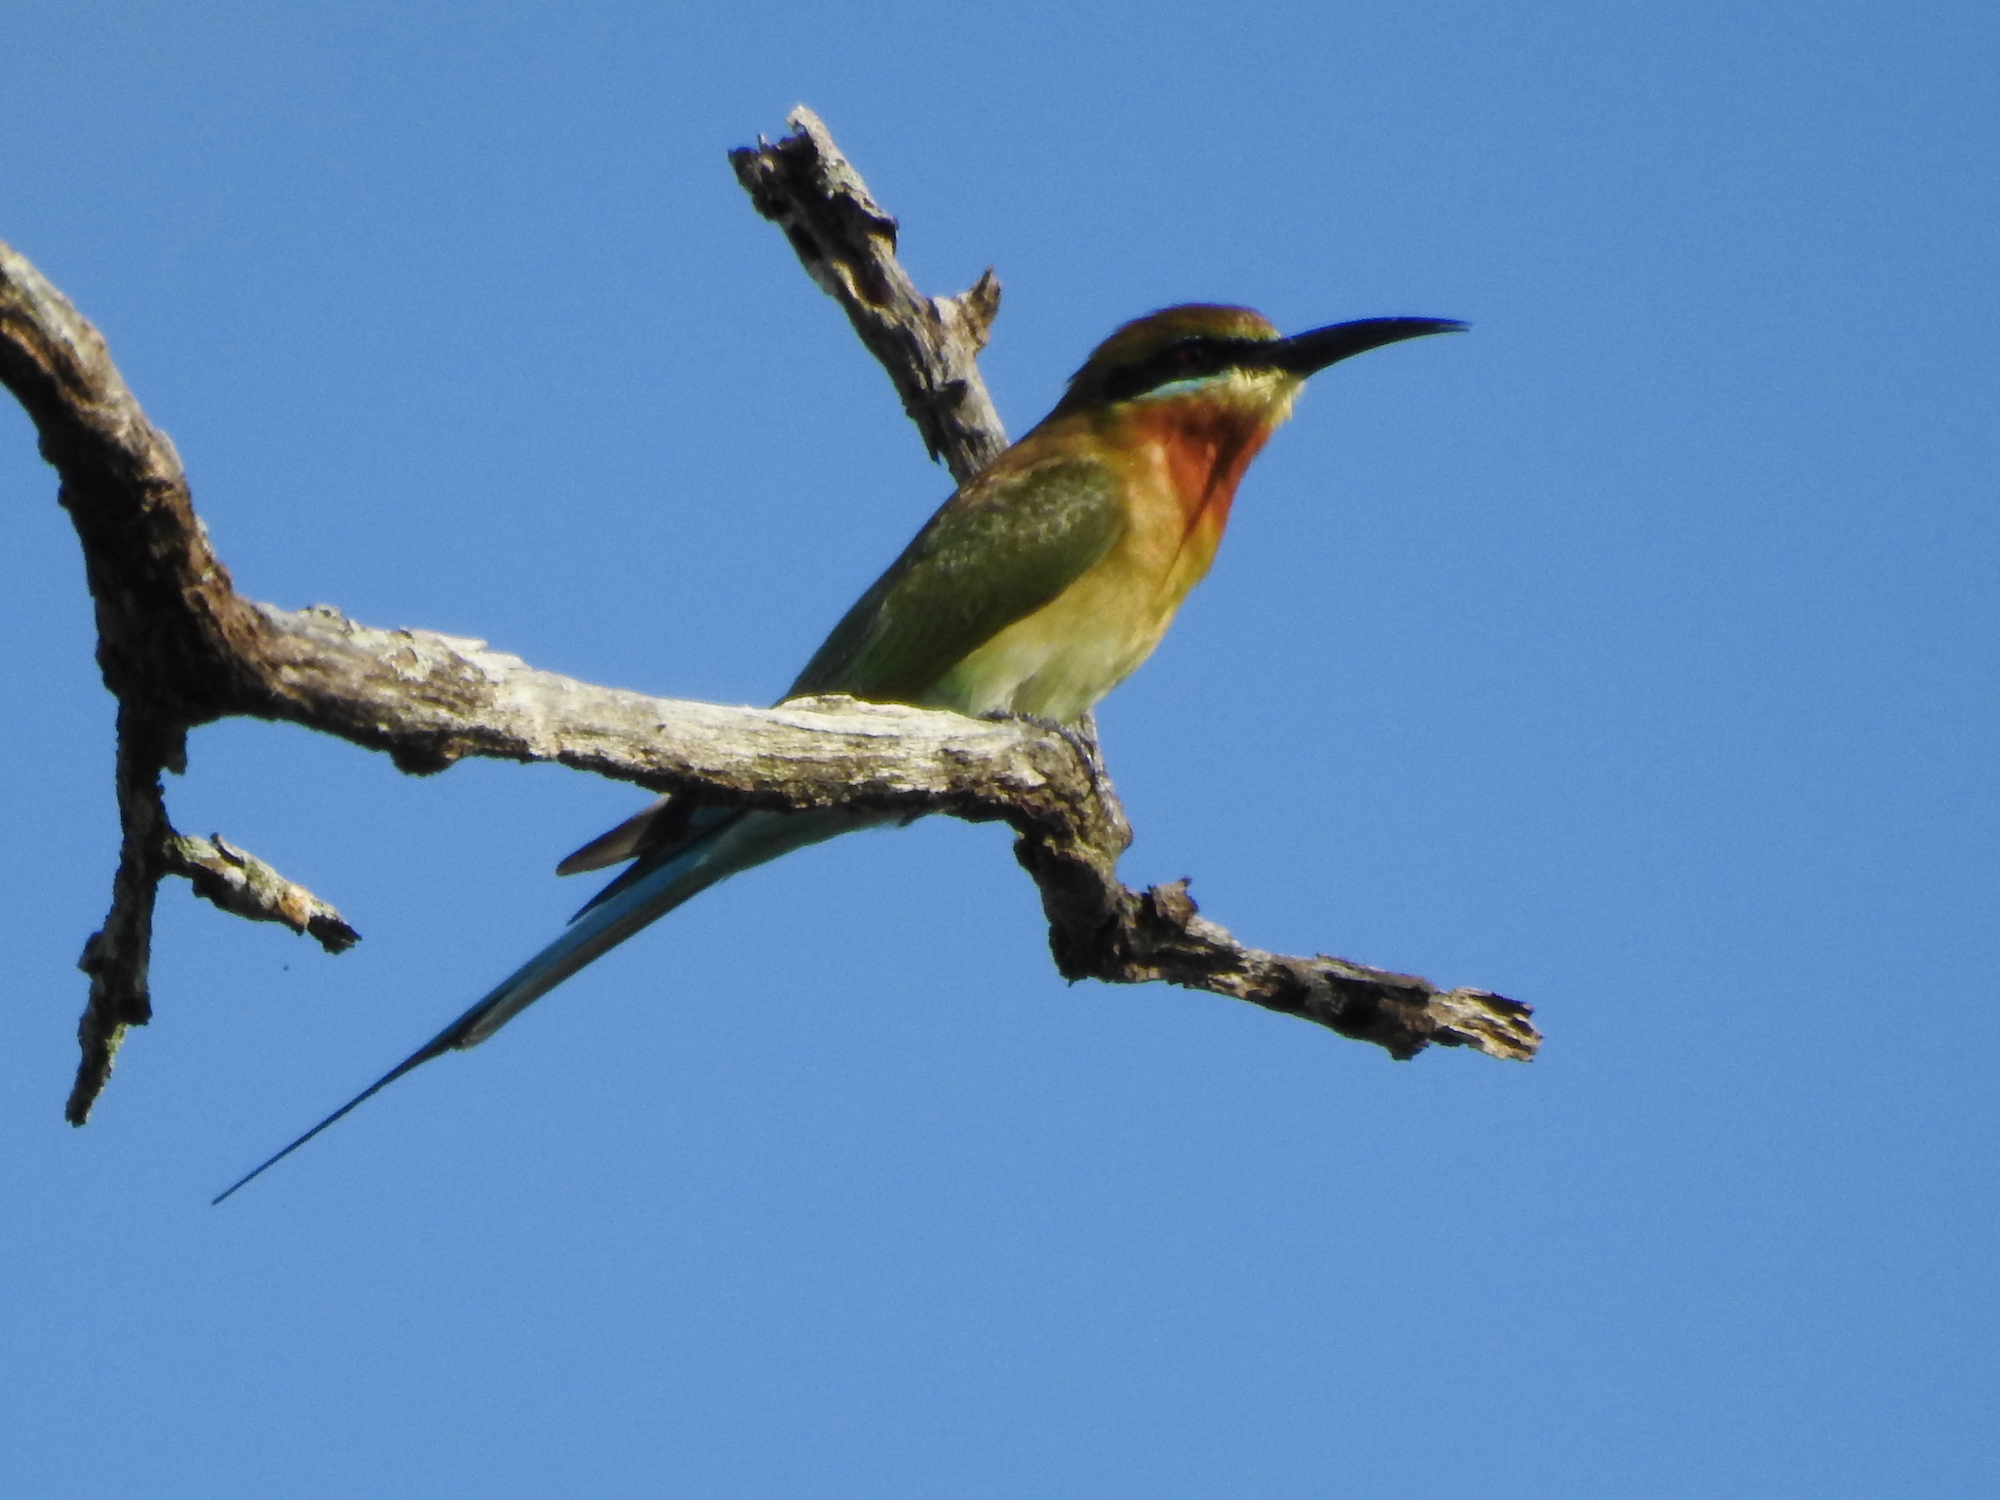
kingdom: Animalia
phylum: Chordata
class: Aves
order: Coraciiformes
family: Meropidae
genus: Merops
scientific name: Merops philippinus
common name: Blue-tailed bee-eater
